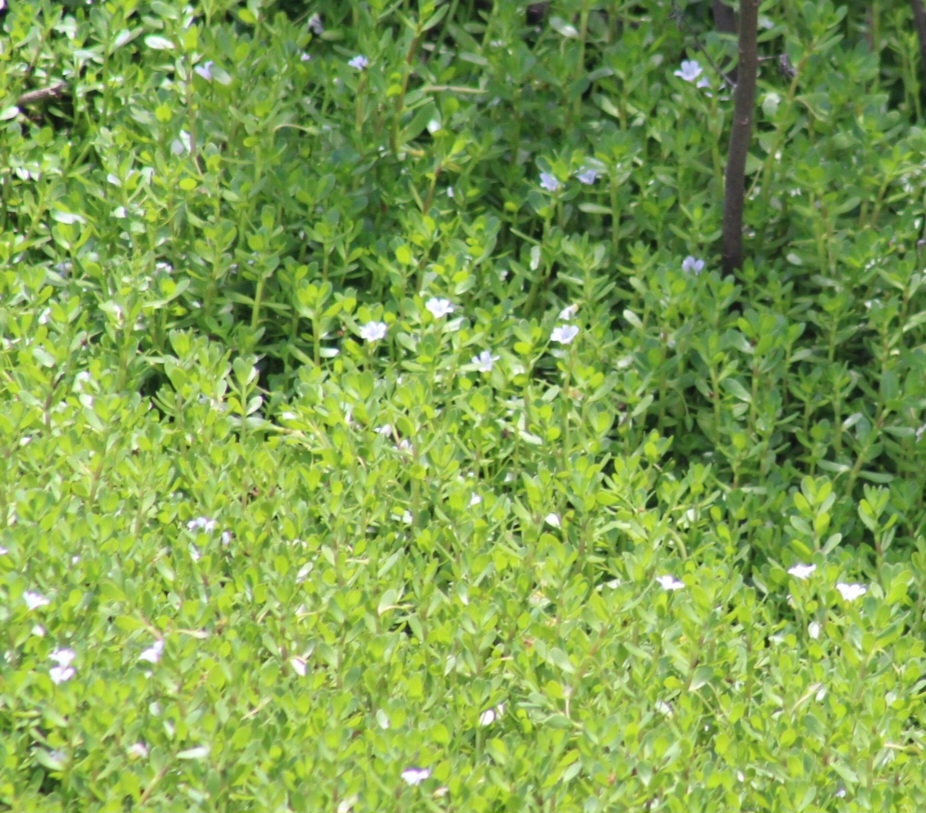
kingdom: Plantae
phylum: Tracheophyta
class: Magnoliopsida
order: Lamiales
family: Plantaginaceae
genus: Bacopa
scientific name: Bacopa monnieri
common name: Indian-pennywort
